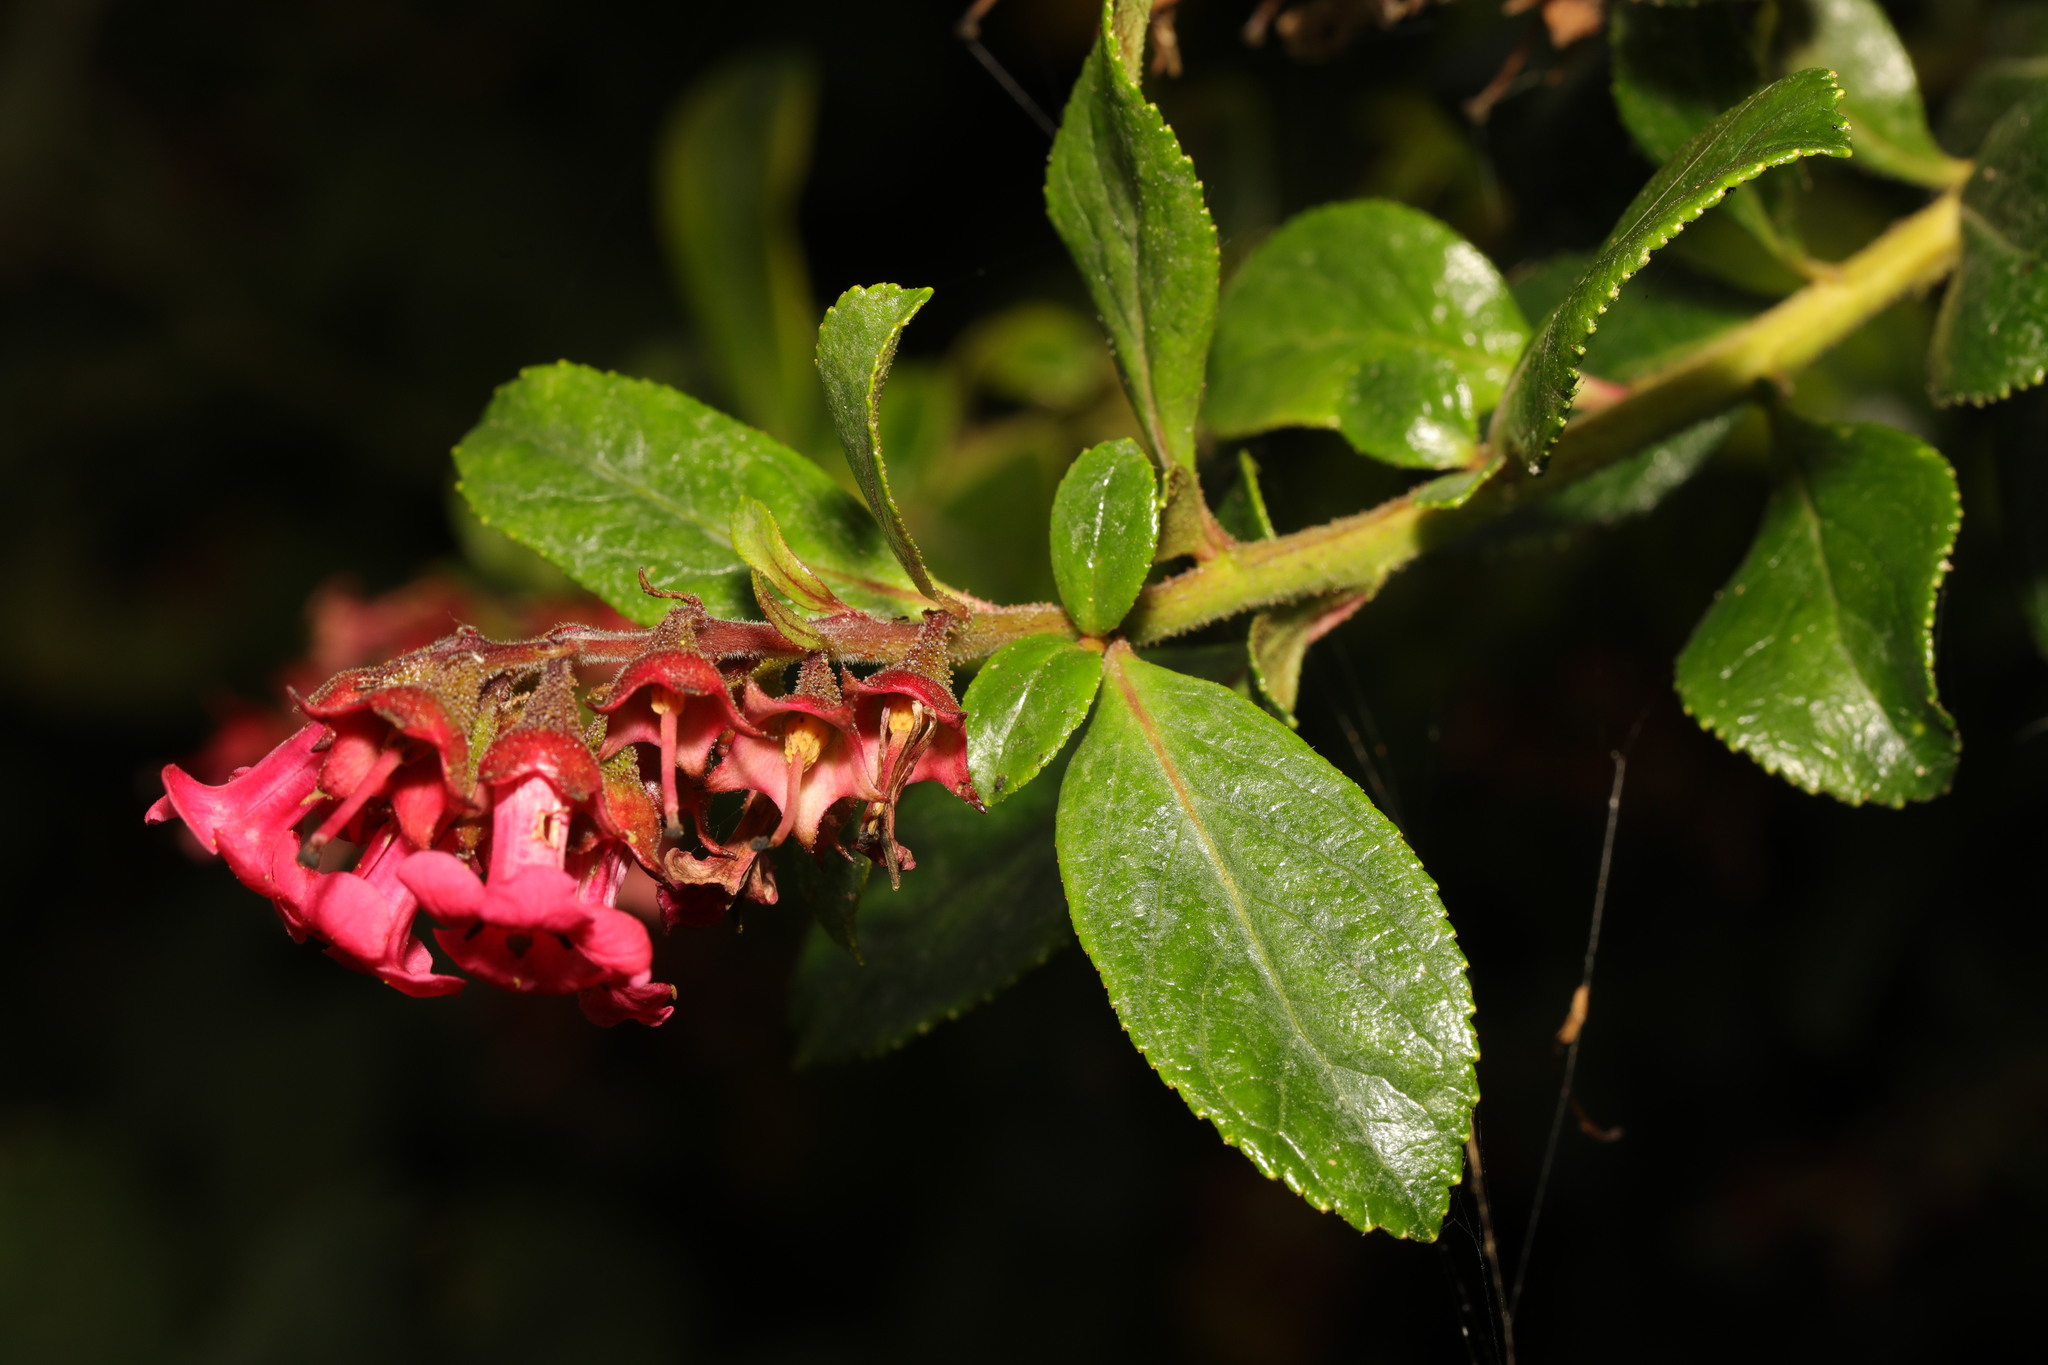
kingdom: Plantae
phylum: Tracheophyta
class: Magnoliopsida
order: Escalloniales
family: Escalloniaceae
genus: Escallonia
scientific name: Escallonia rubra
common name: Redclaws
